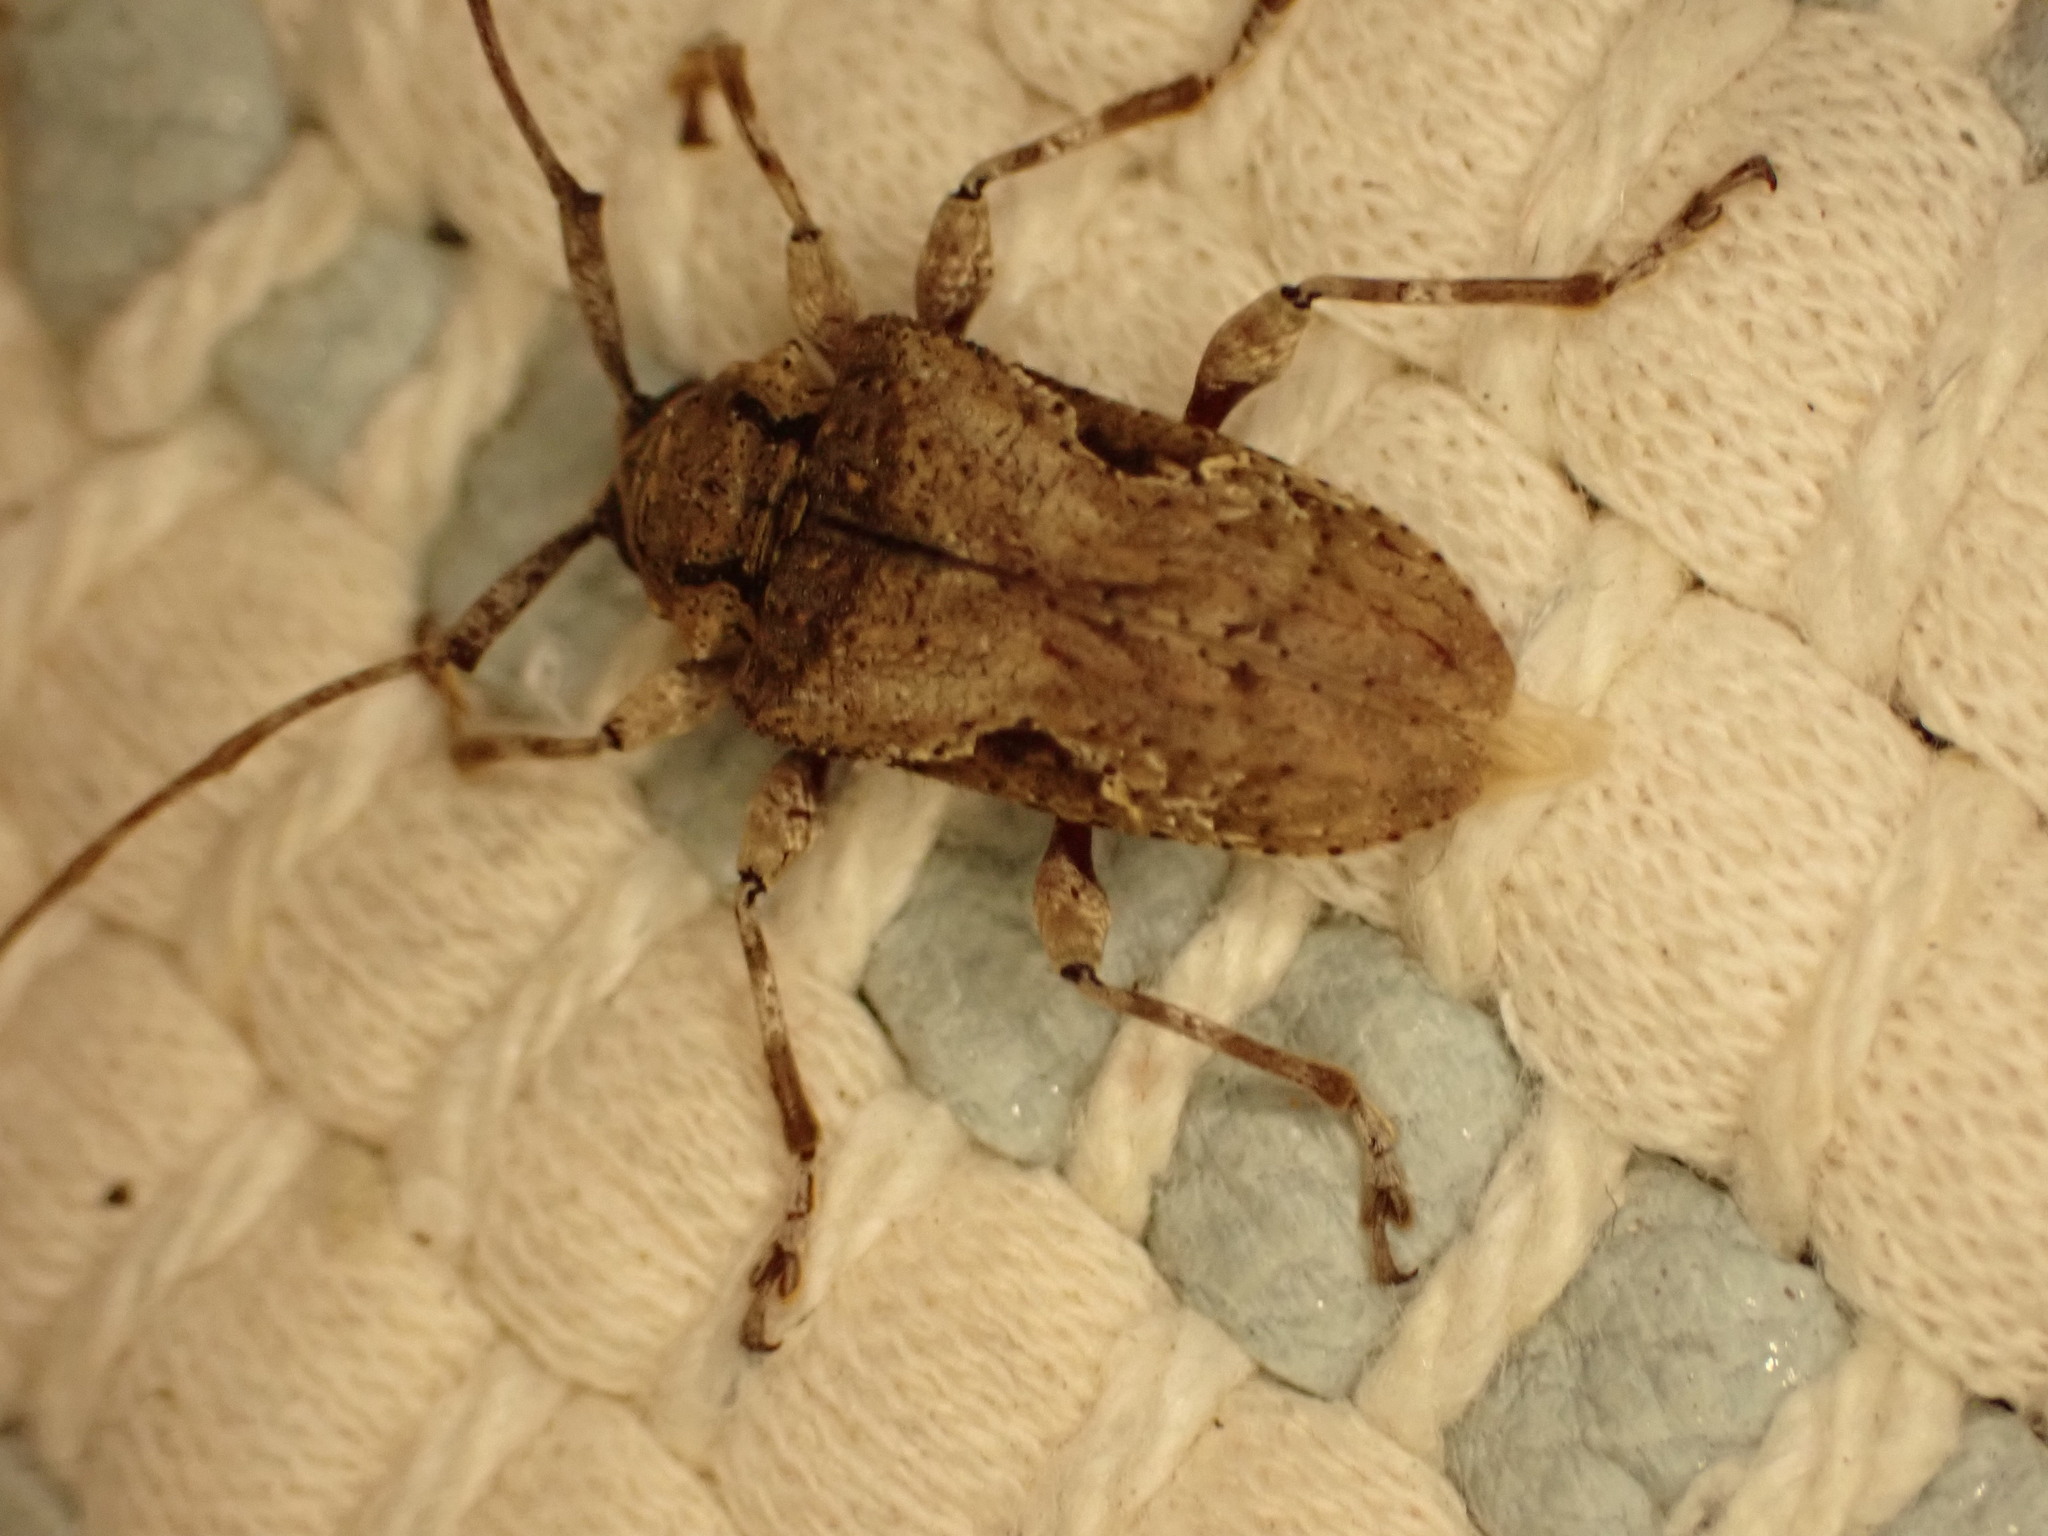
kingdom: Animalia
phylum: Arthropoda
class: Insecta
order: Coleoptera
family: Cerambycidae
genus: Lagocheirus
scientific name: Lagocheirus obsoletus
